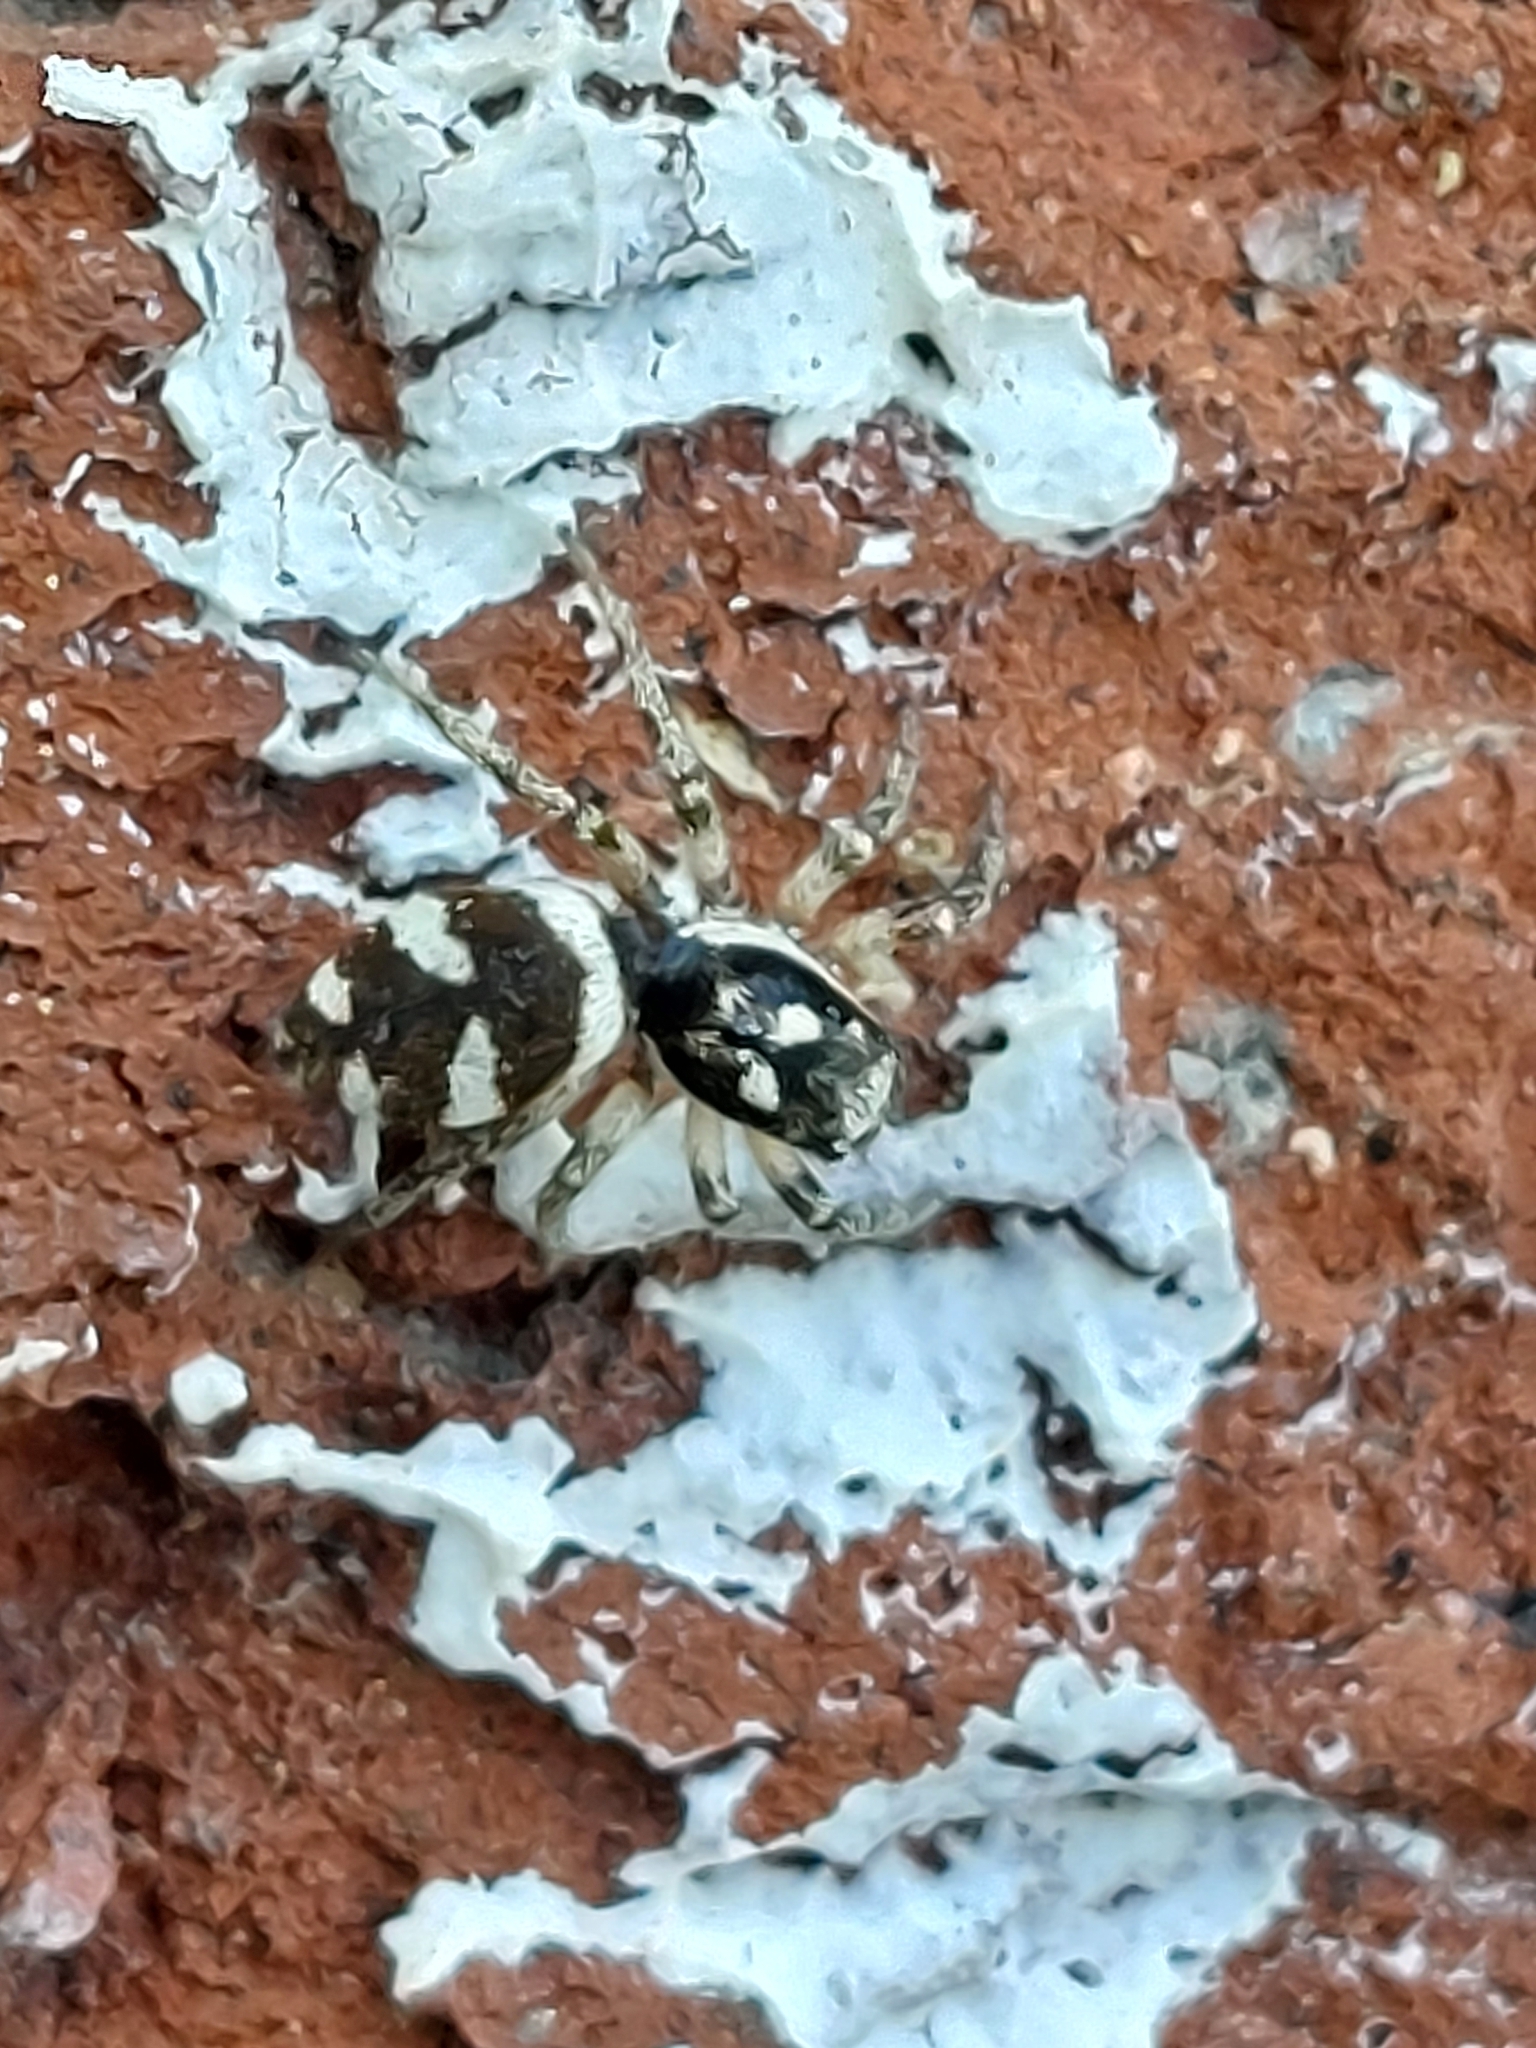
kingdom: Animalia
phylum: Arthropoda
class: Arachnida
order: Araneae
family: Salticidae
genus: Salticus
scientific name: Salticus scenicus
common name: Zebra jumper
